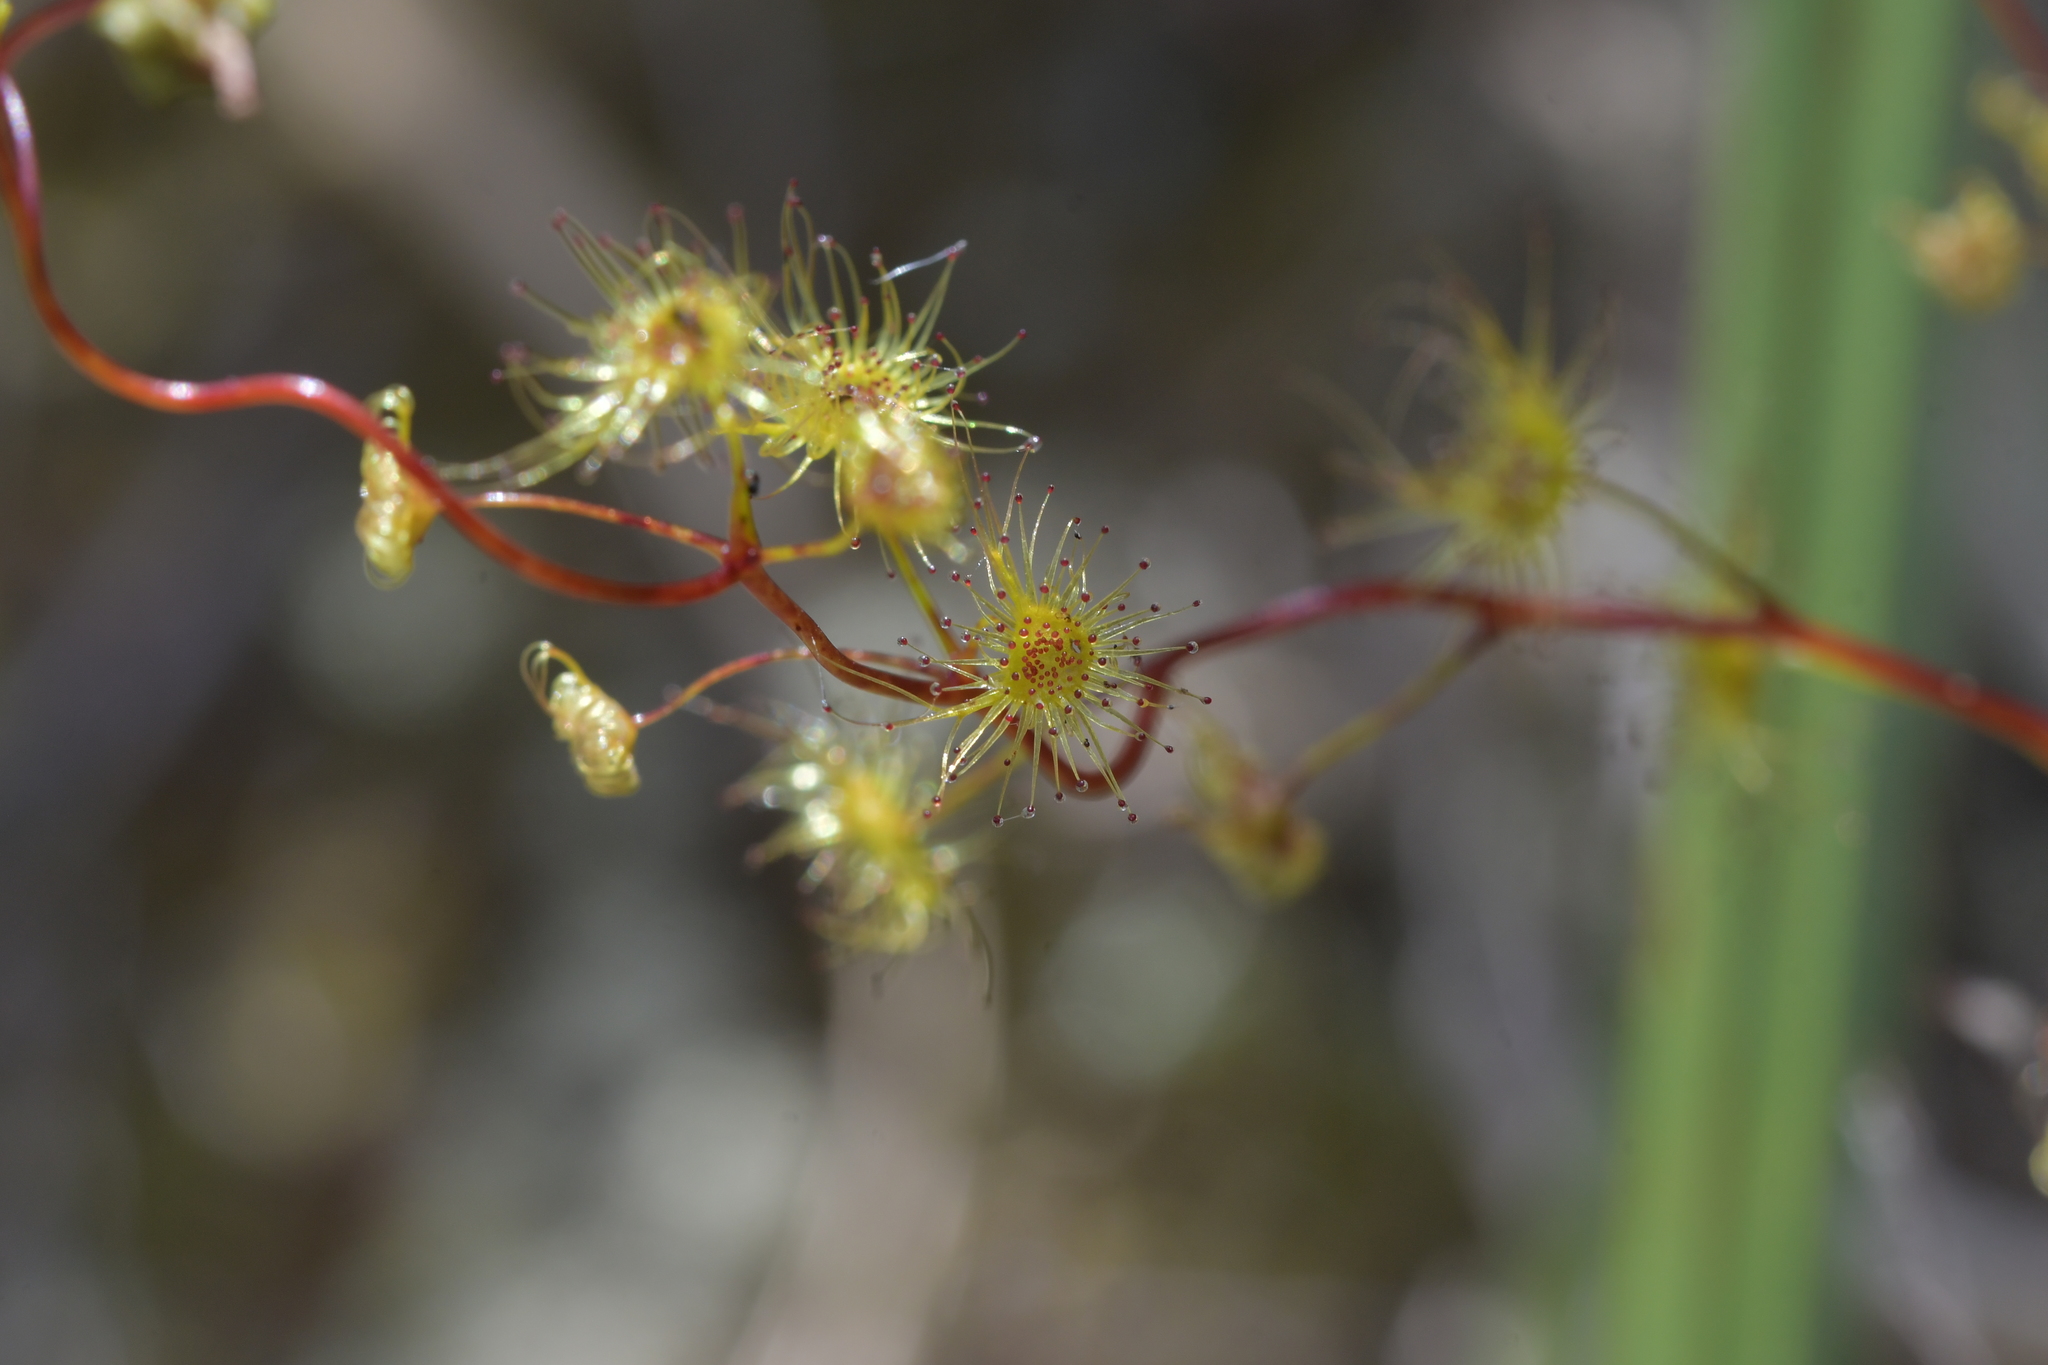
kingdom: Plantae
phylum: Tracheophyta
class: Magnoliopsida
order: Caryophyllales
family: Droseraceae
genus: Drosera
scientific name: Drosera peltata
